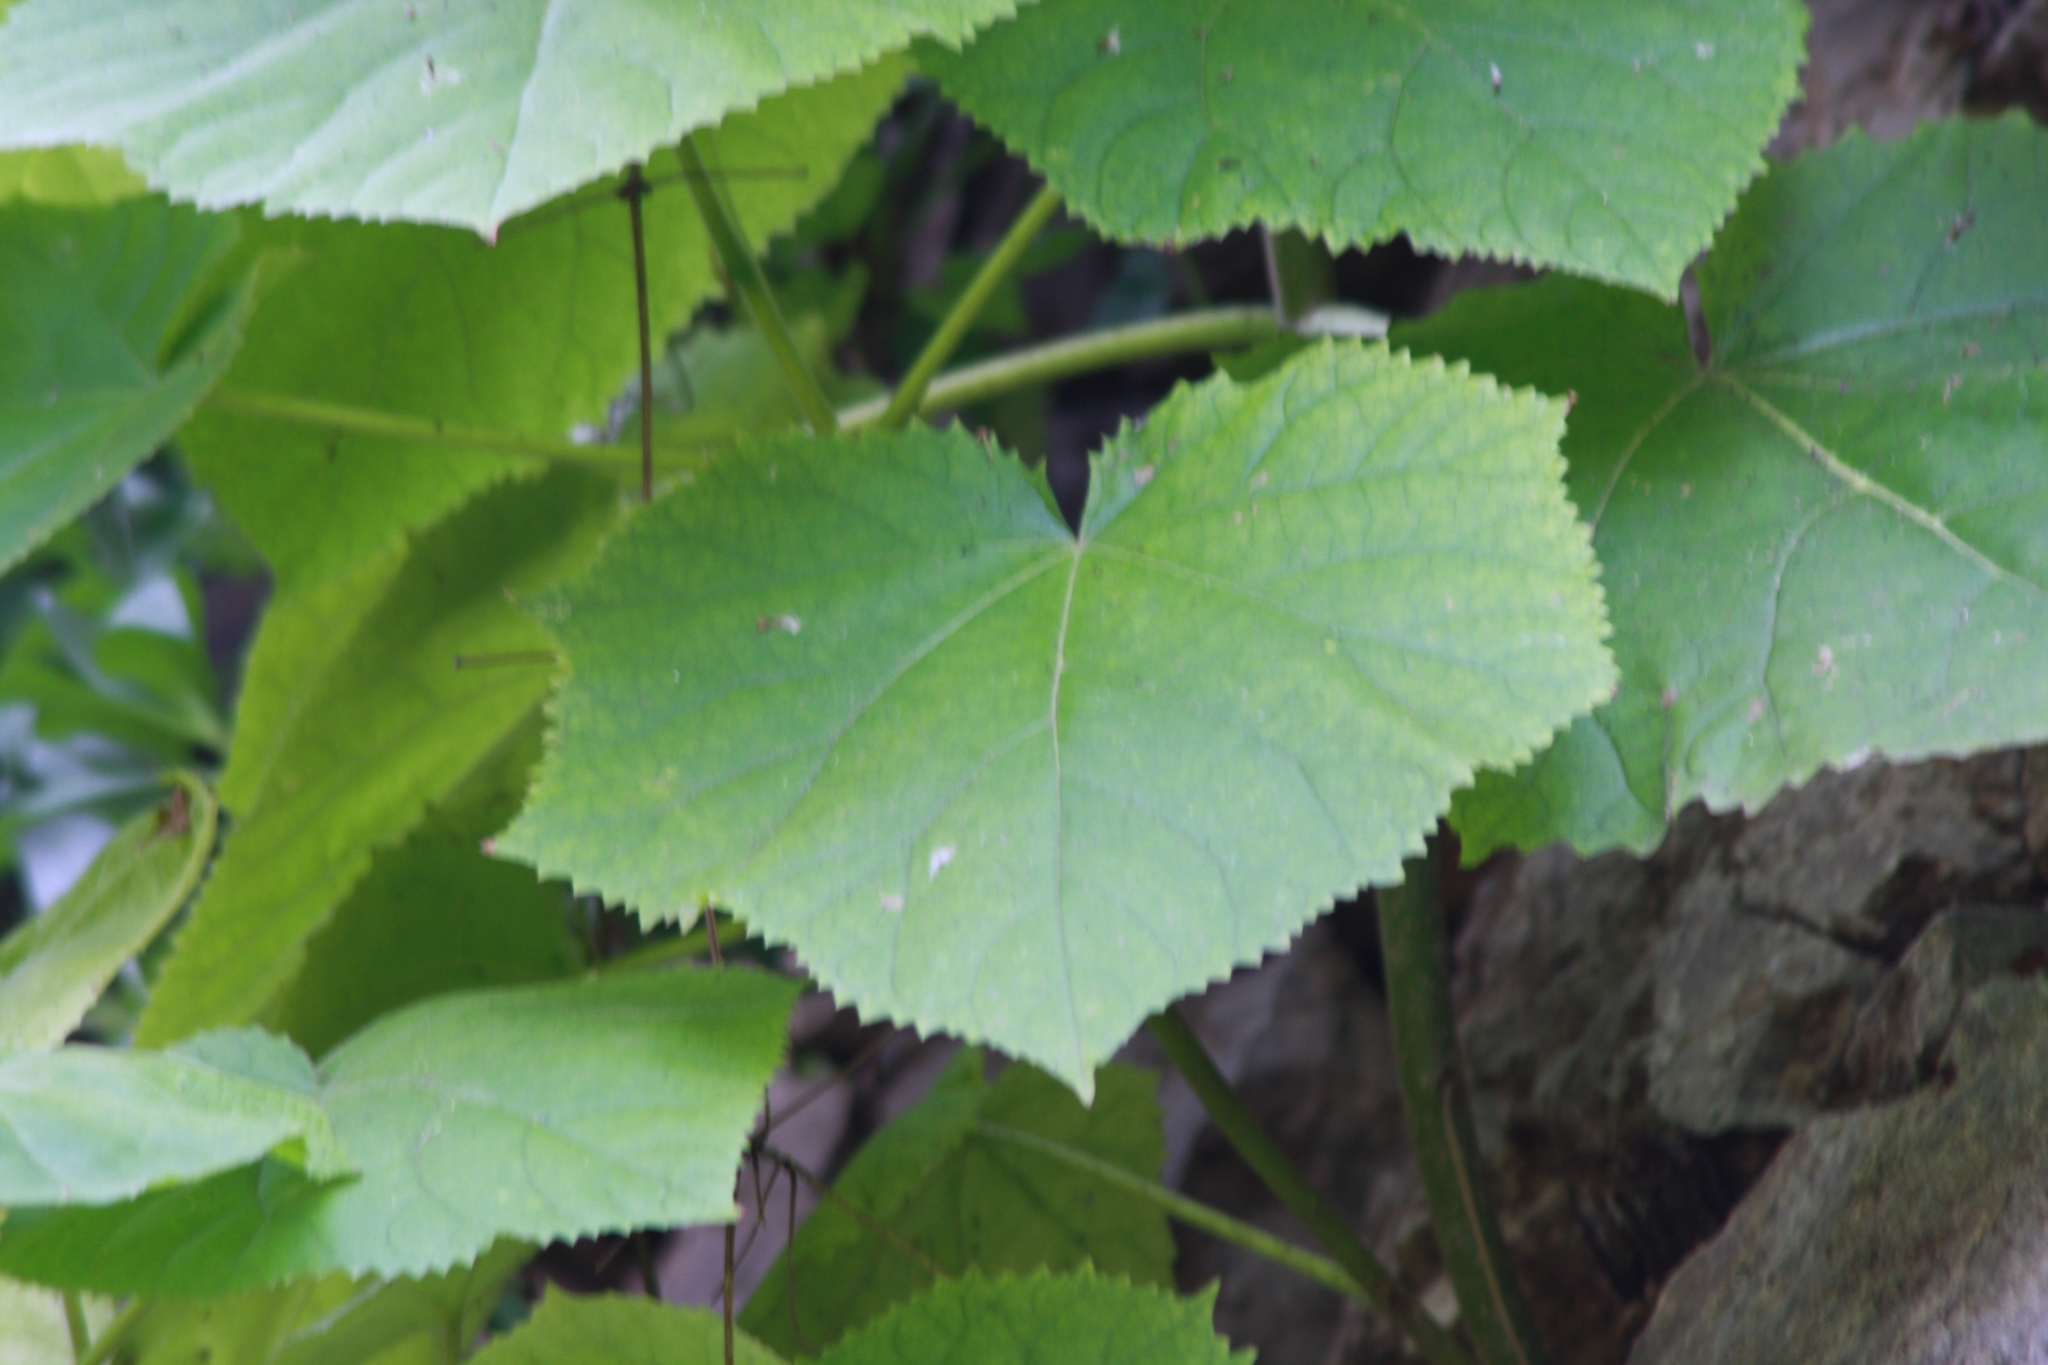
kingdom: Plantae
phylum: Tracheophyta
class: Magnoliopsida
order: Lamiales
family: Paulowniaceae
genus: Paulownia
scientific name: Paulownia tomentosa
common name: Foxglove-tree
